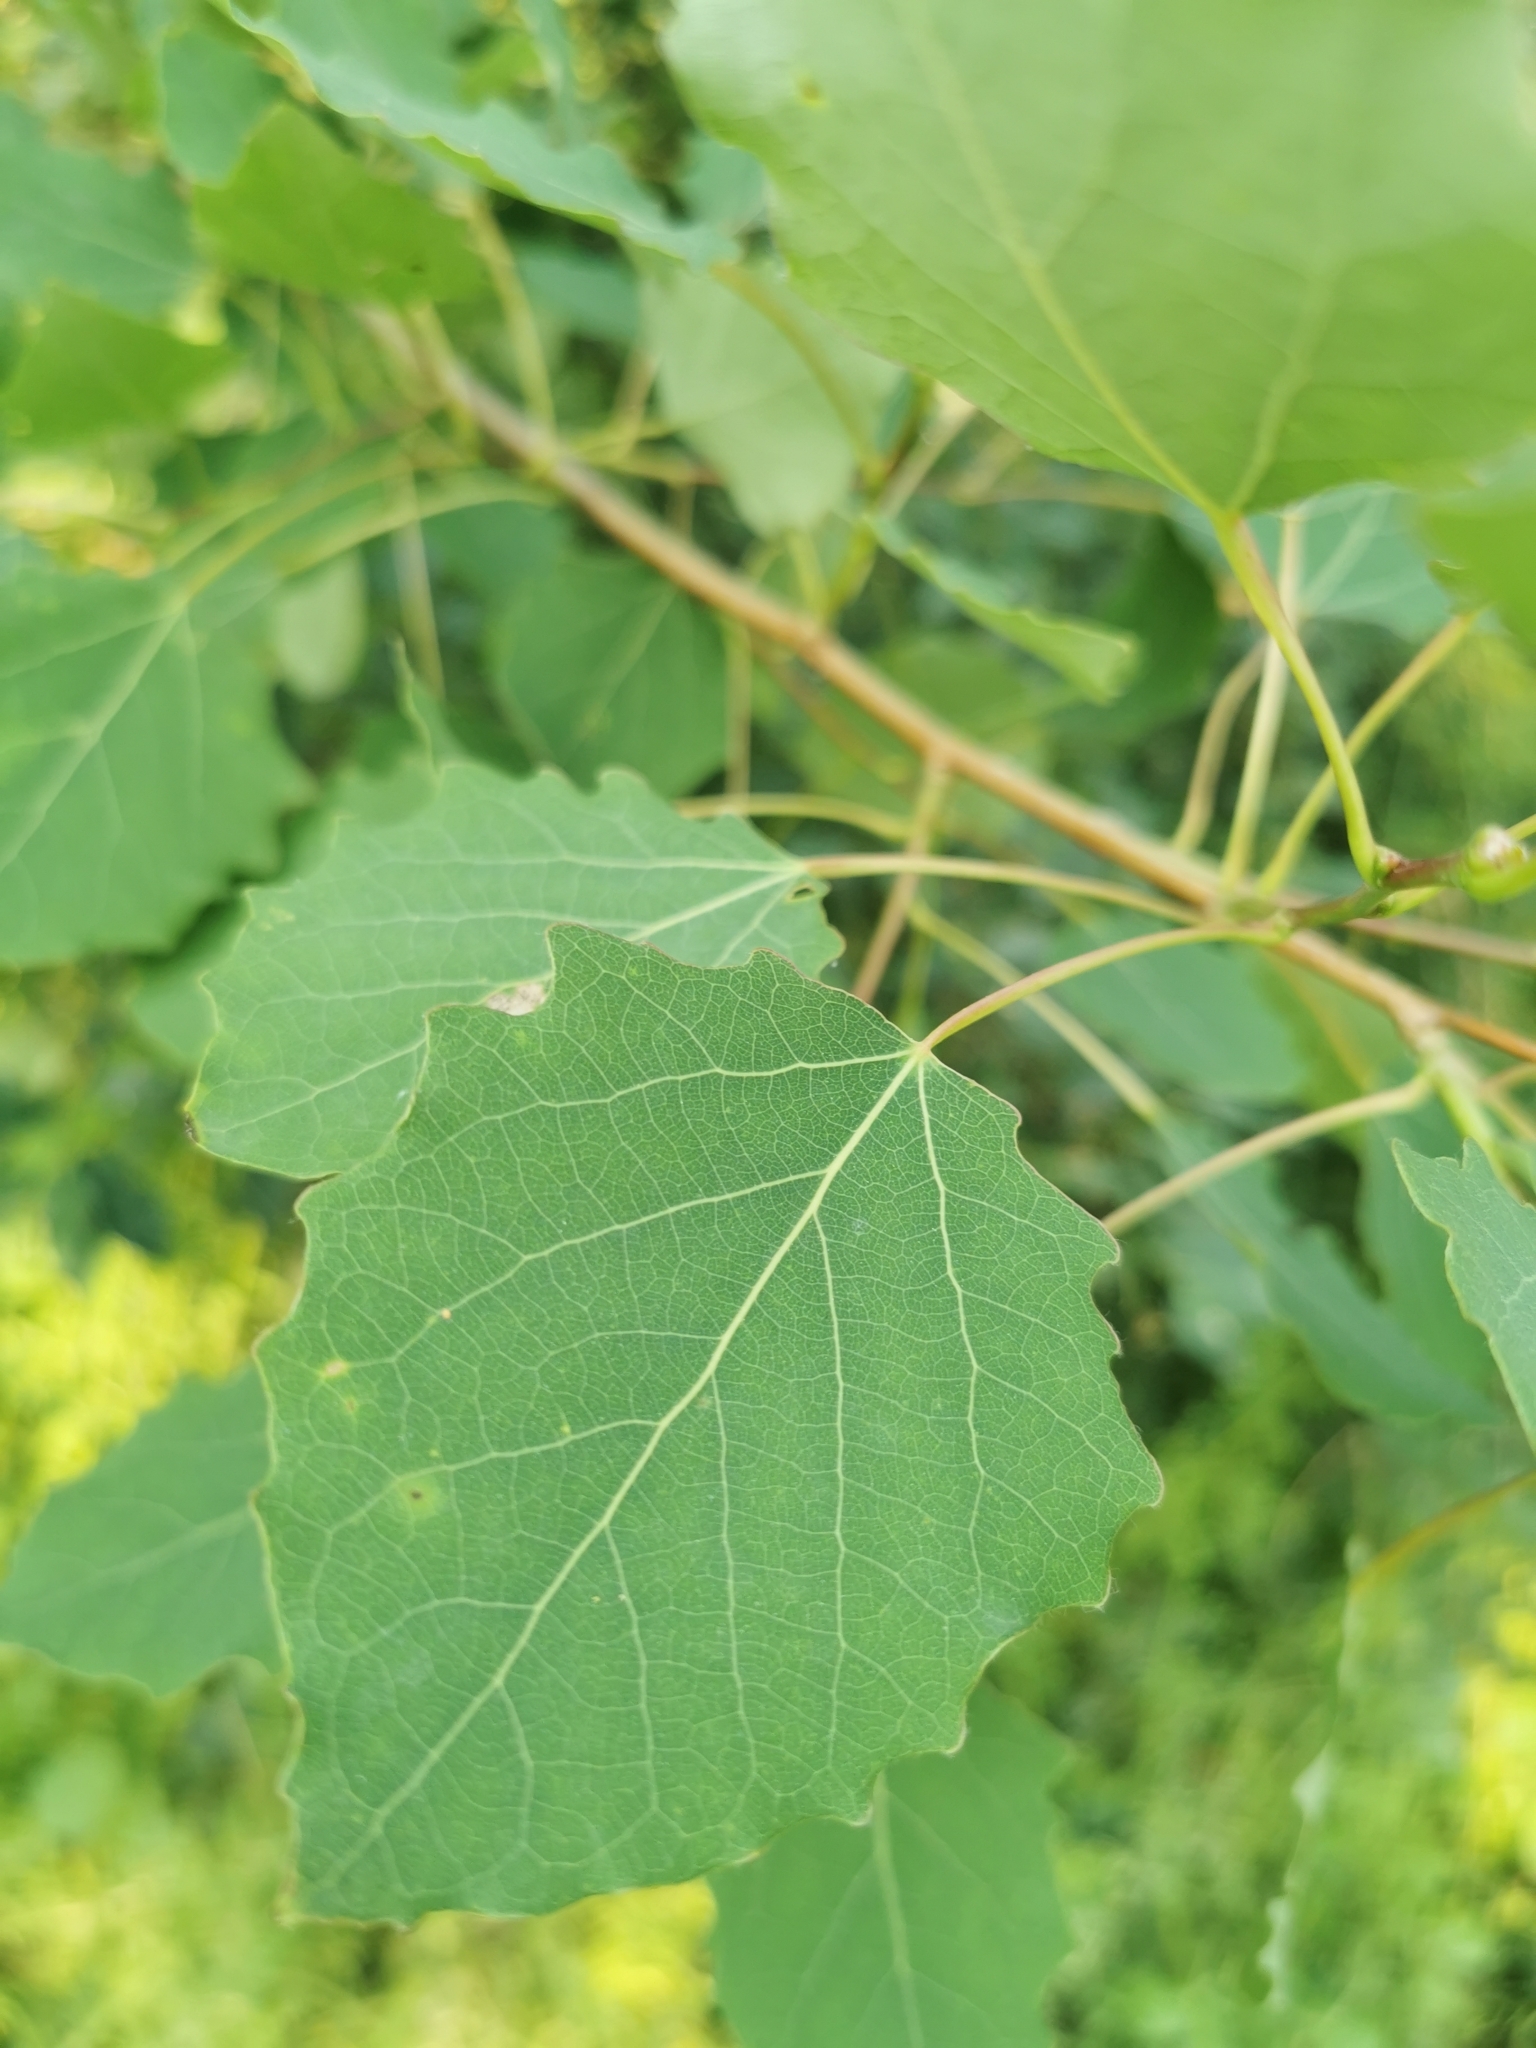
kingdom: Plantae
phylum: Tracheophyta
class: Magnoliopsida
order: Malpighiales
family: Salicaceae
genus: Populus
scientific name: Populus tremula
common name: European aspen
